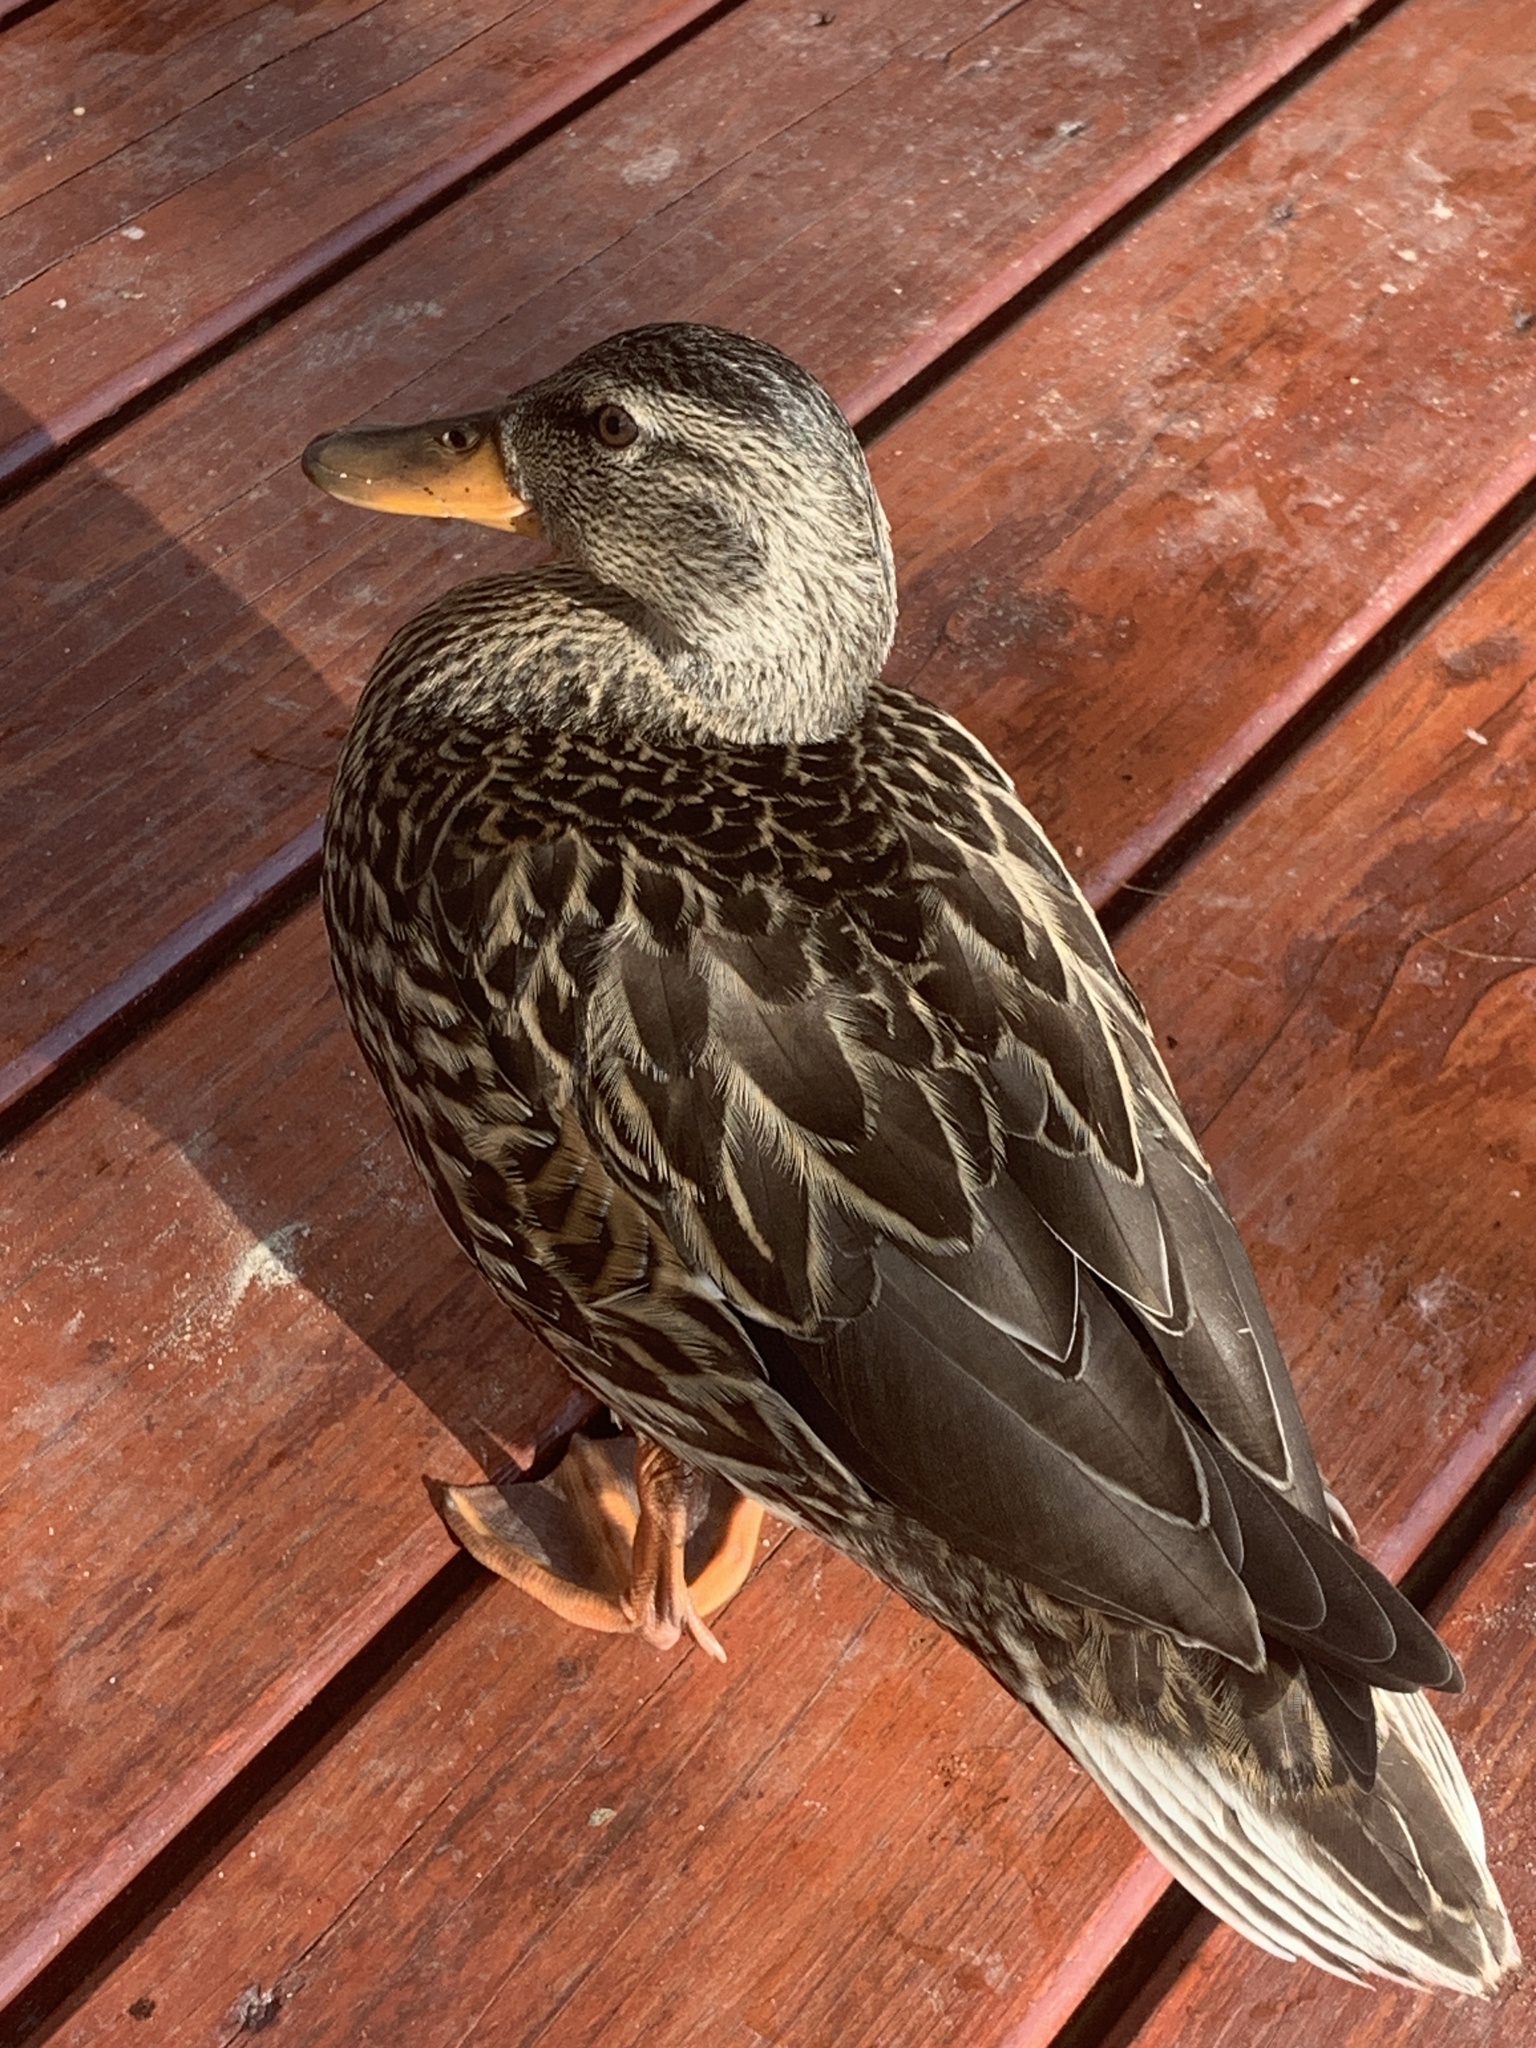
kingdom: Animalia
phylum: Chordata
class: Aves
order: Anseriformes
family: Anatidae
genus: Anas
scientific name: Anas platyrhynchos
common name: Mallard
